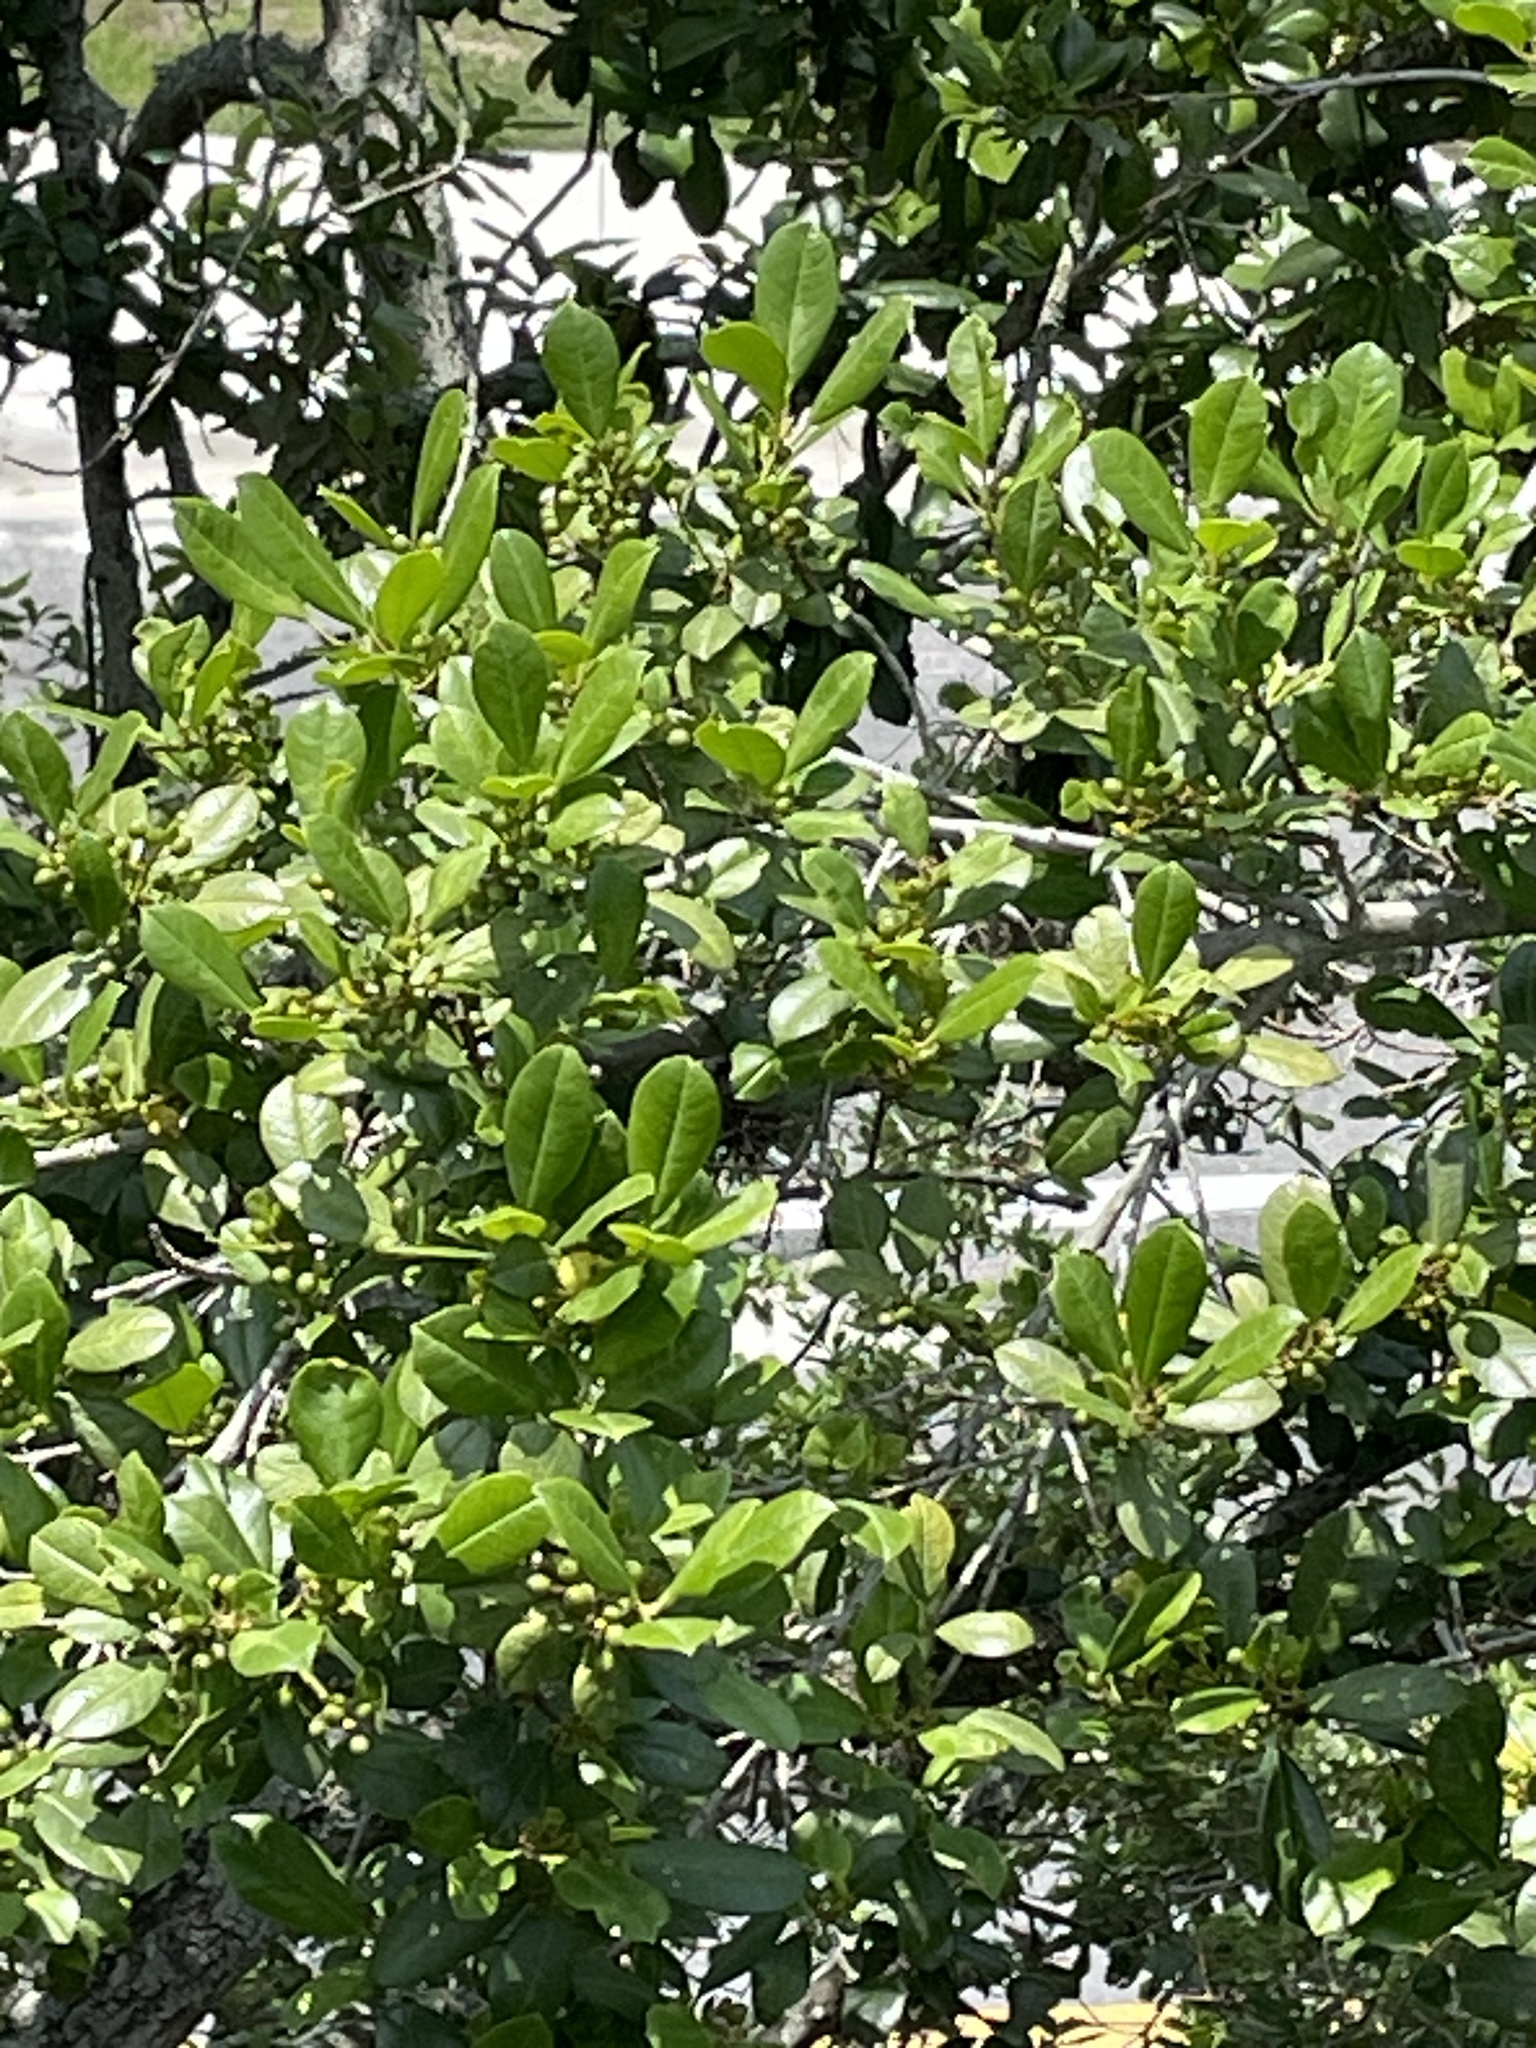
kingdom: Plantae
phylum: Tracheophyta
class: Magnoliopsida
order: Aquifoliales
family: Aquifoliaceae
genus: Ilex
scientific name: Ilex cassine
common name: Dahoon
